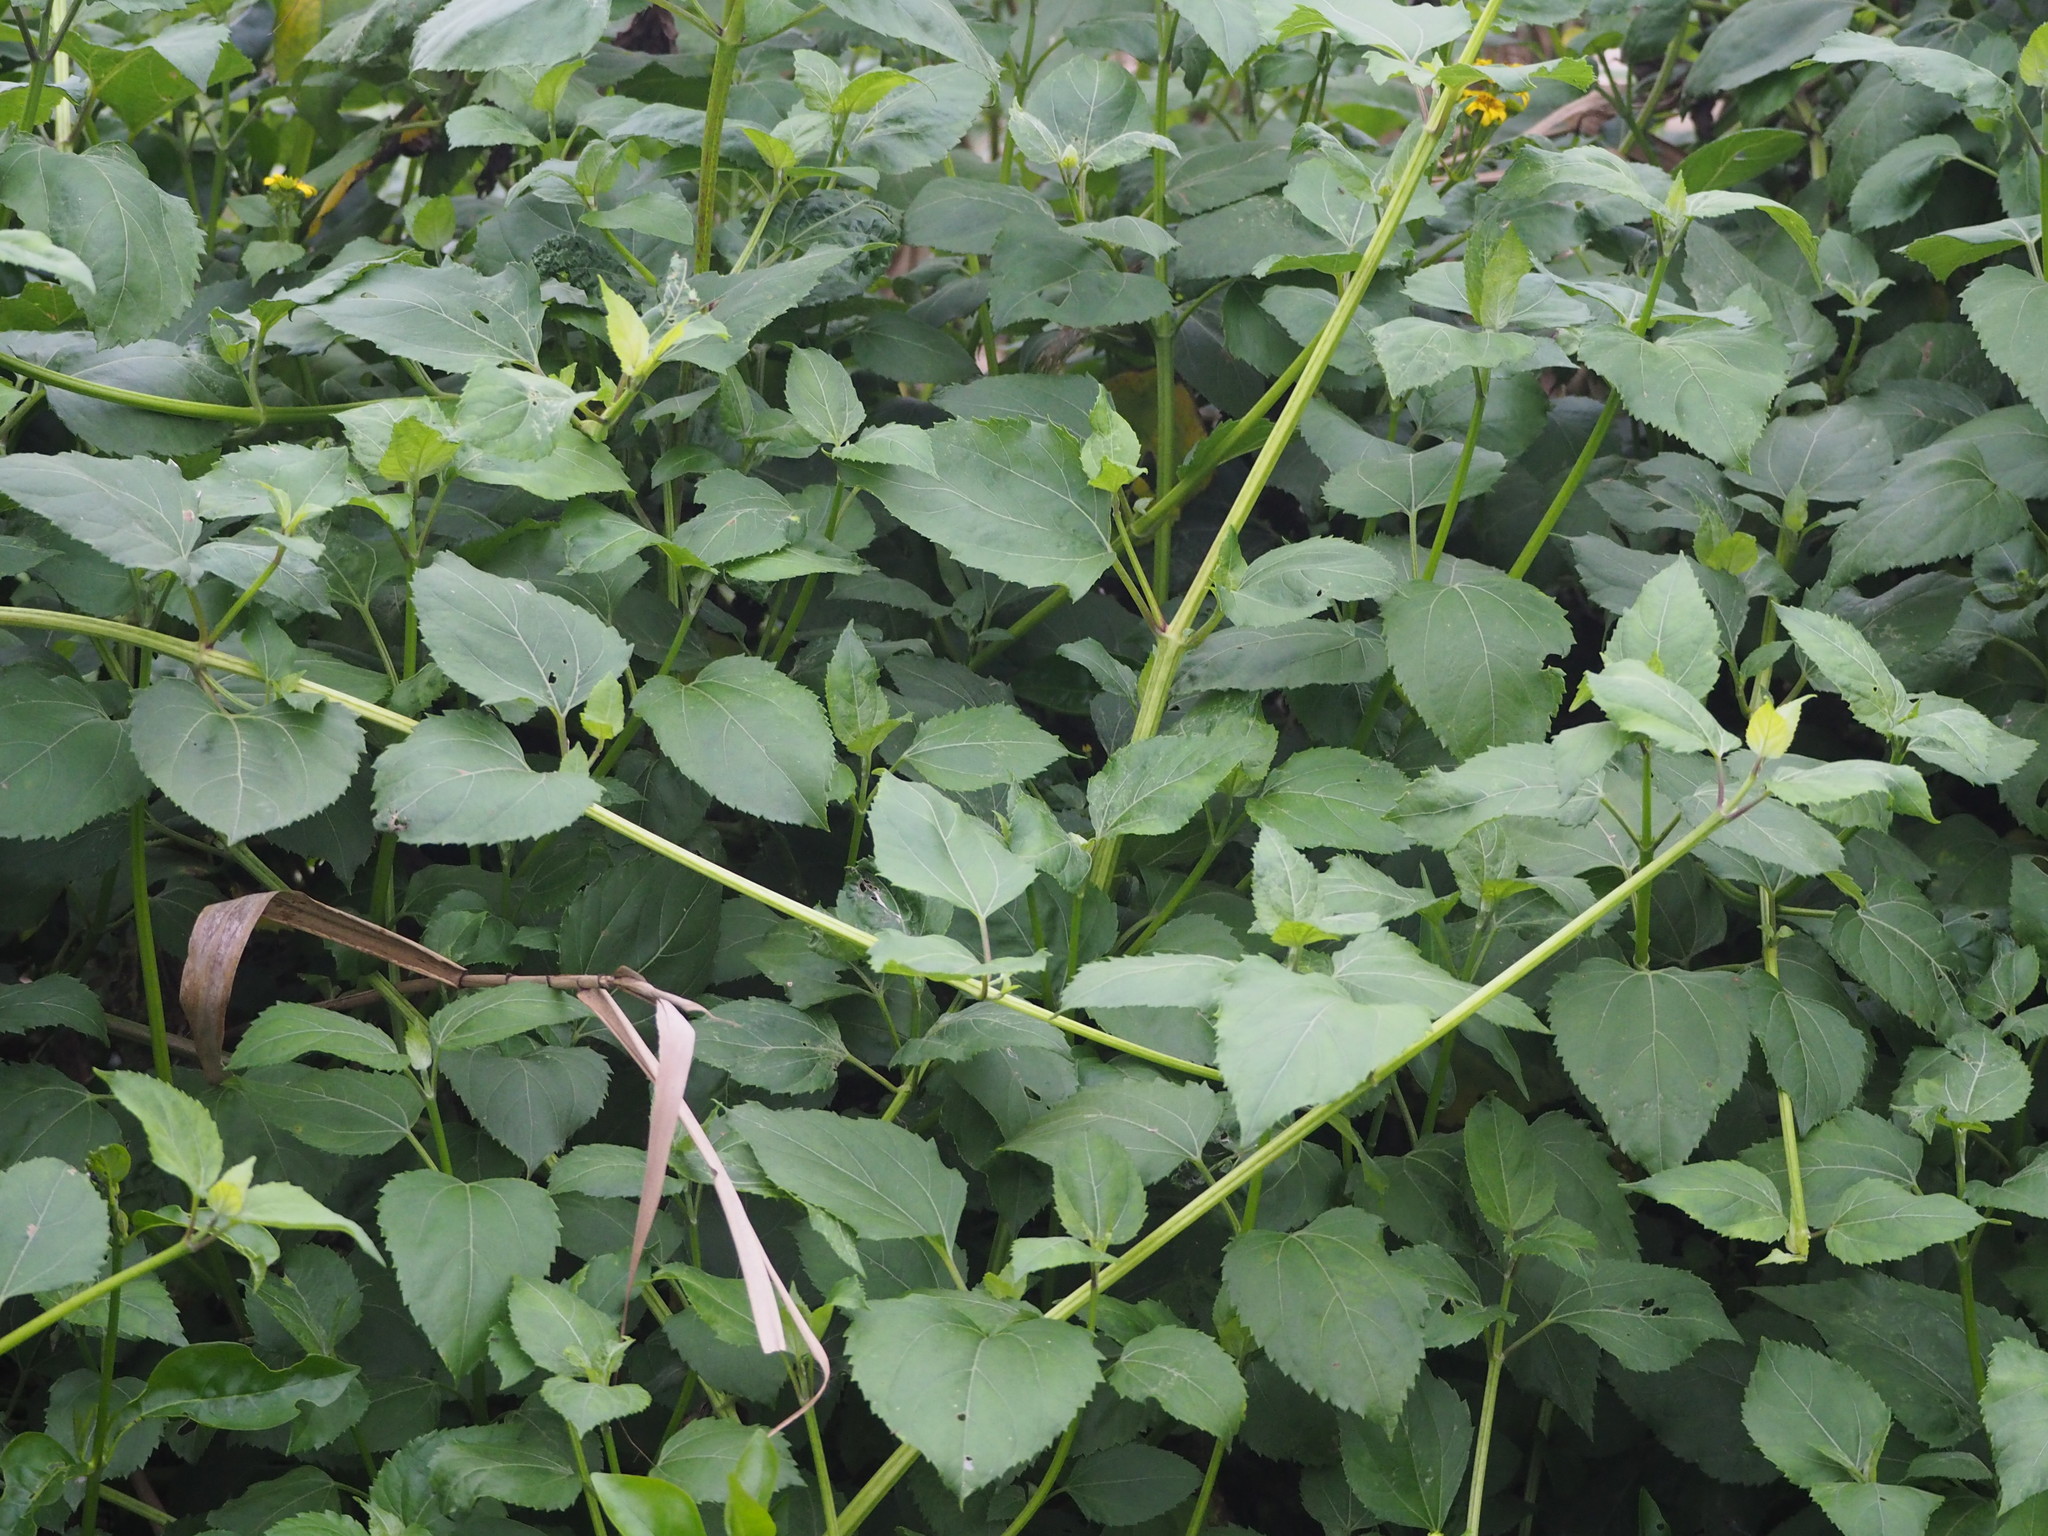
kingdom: Plantae
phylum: Tracheophyta
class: Magnoliopsida
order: Asterales
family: Asteraceae
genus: Wollastonia
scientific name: Wollastonia biflora
